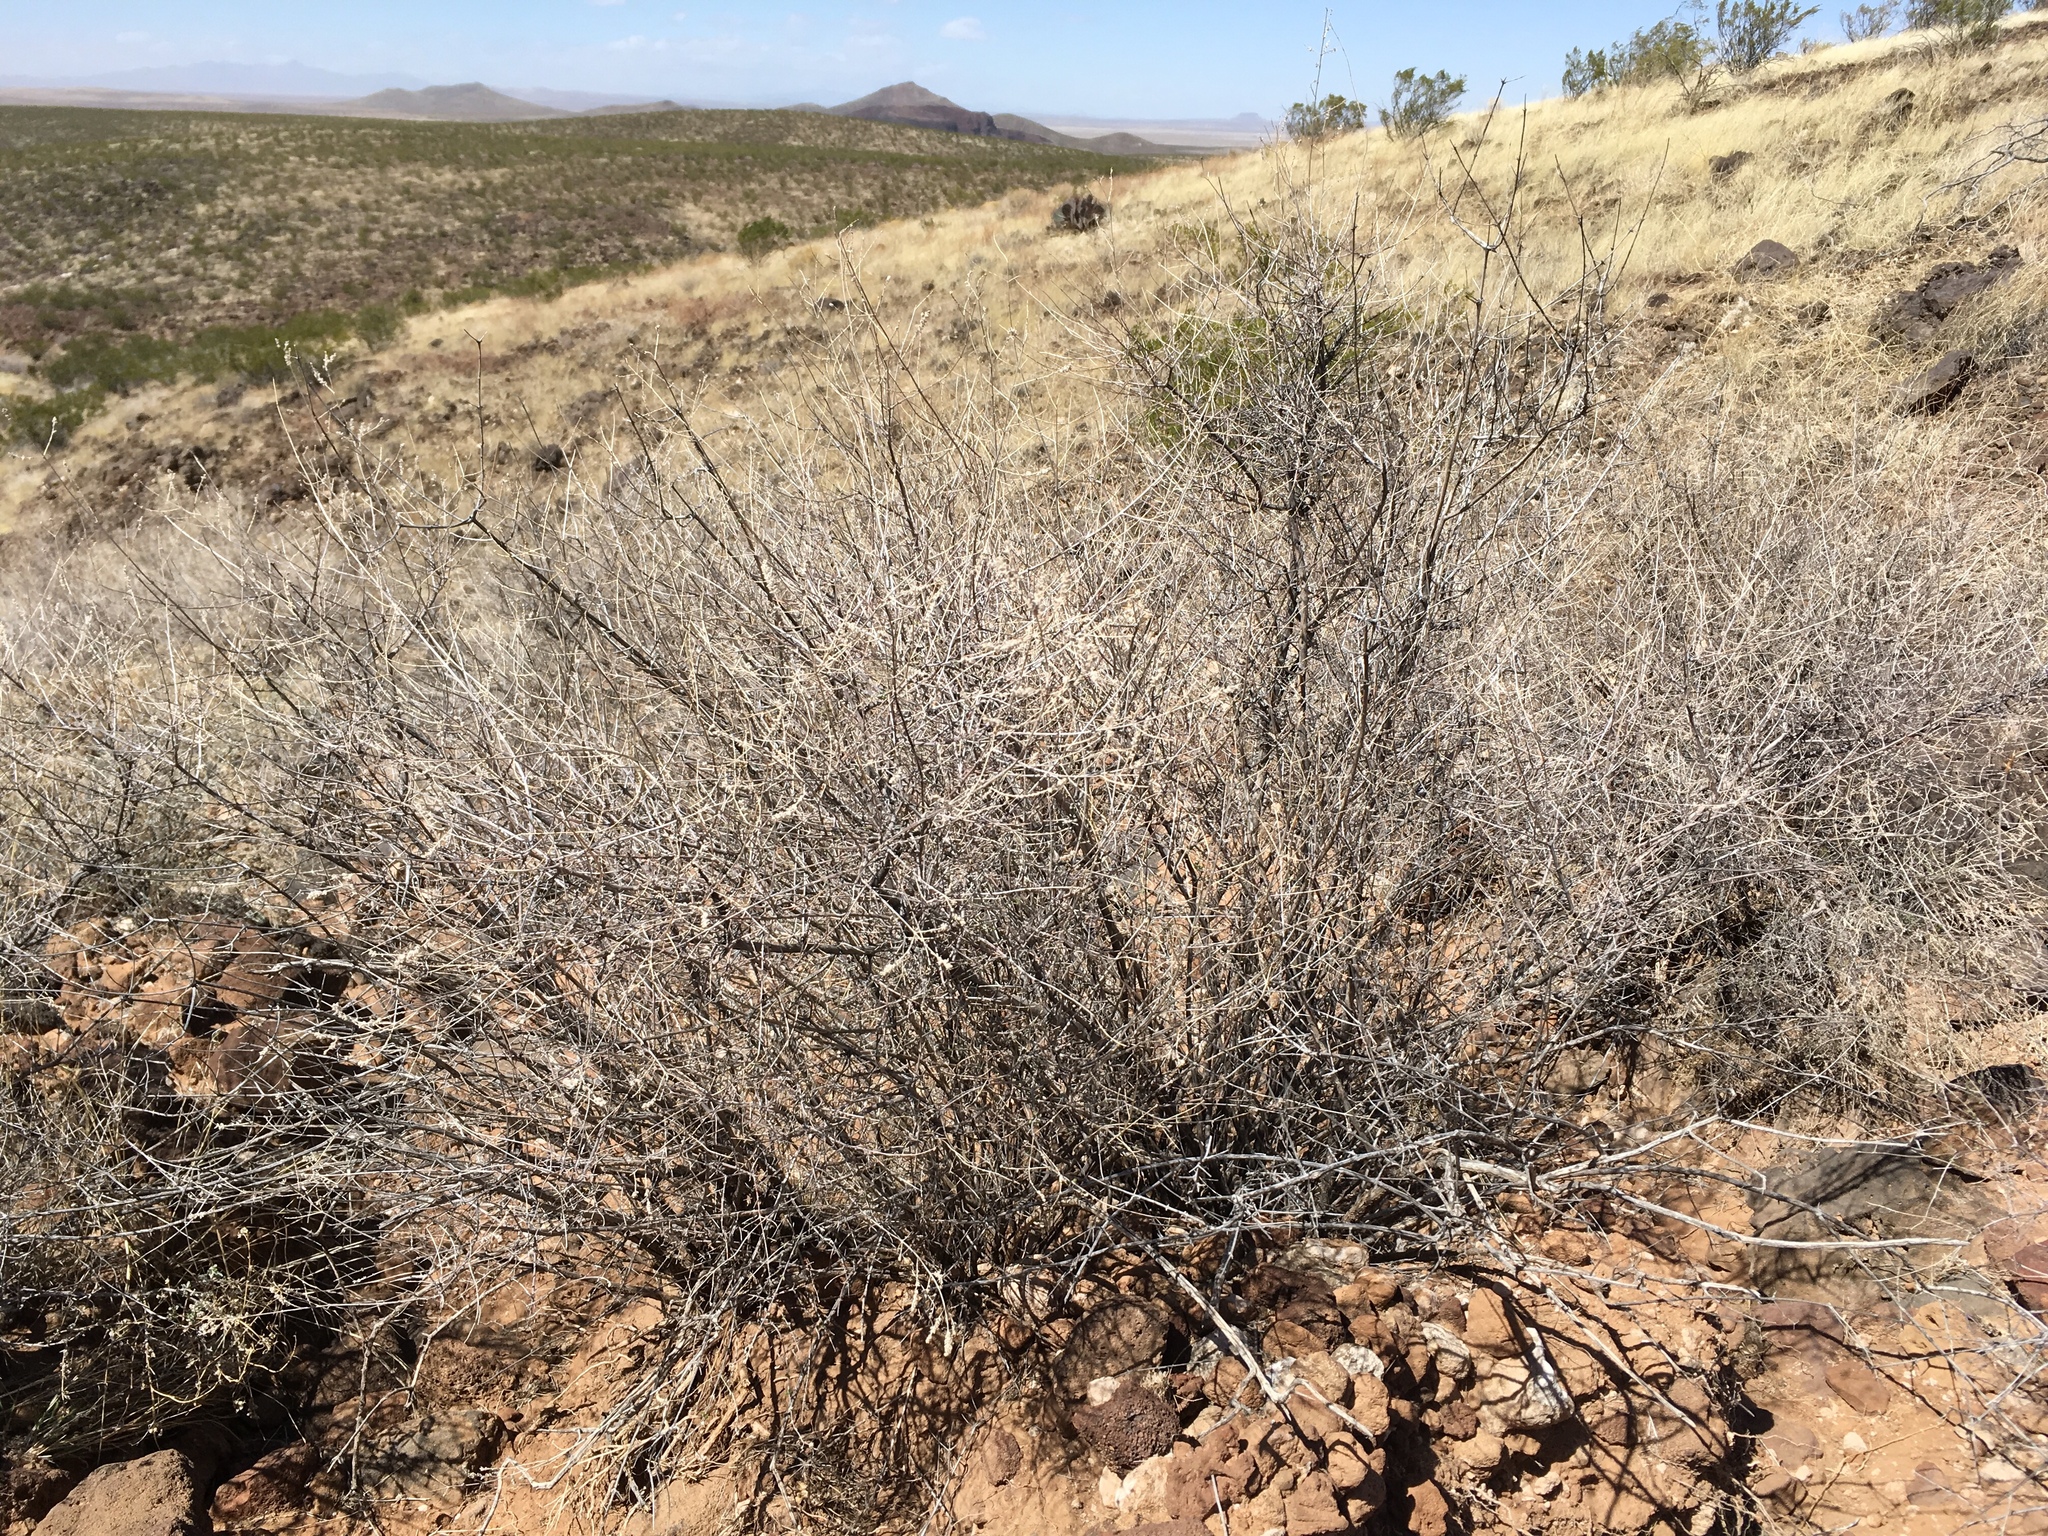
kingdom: Plantae
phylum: Tracheophyta
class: Magnoliopsida
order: Lamiales
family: Verbenaceae
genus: Aloysia
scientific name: Aloysia wrightii
